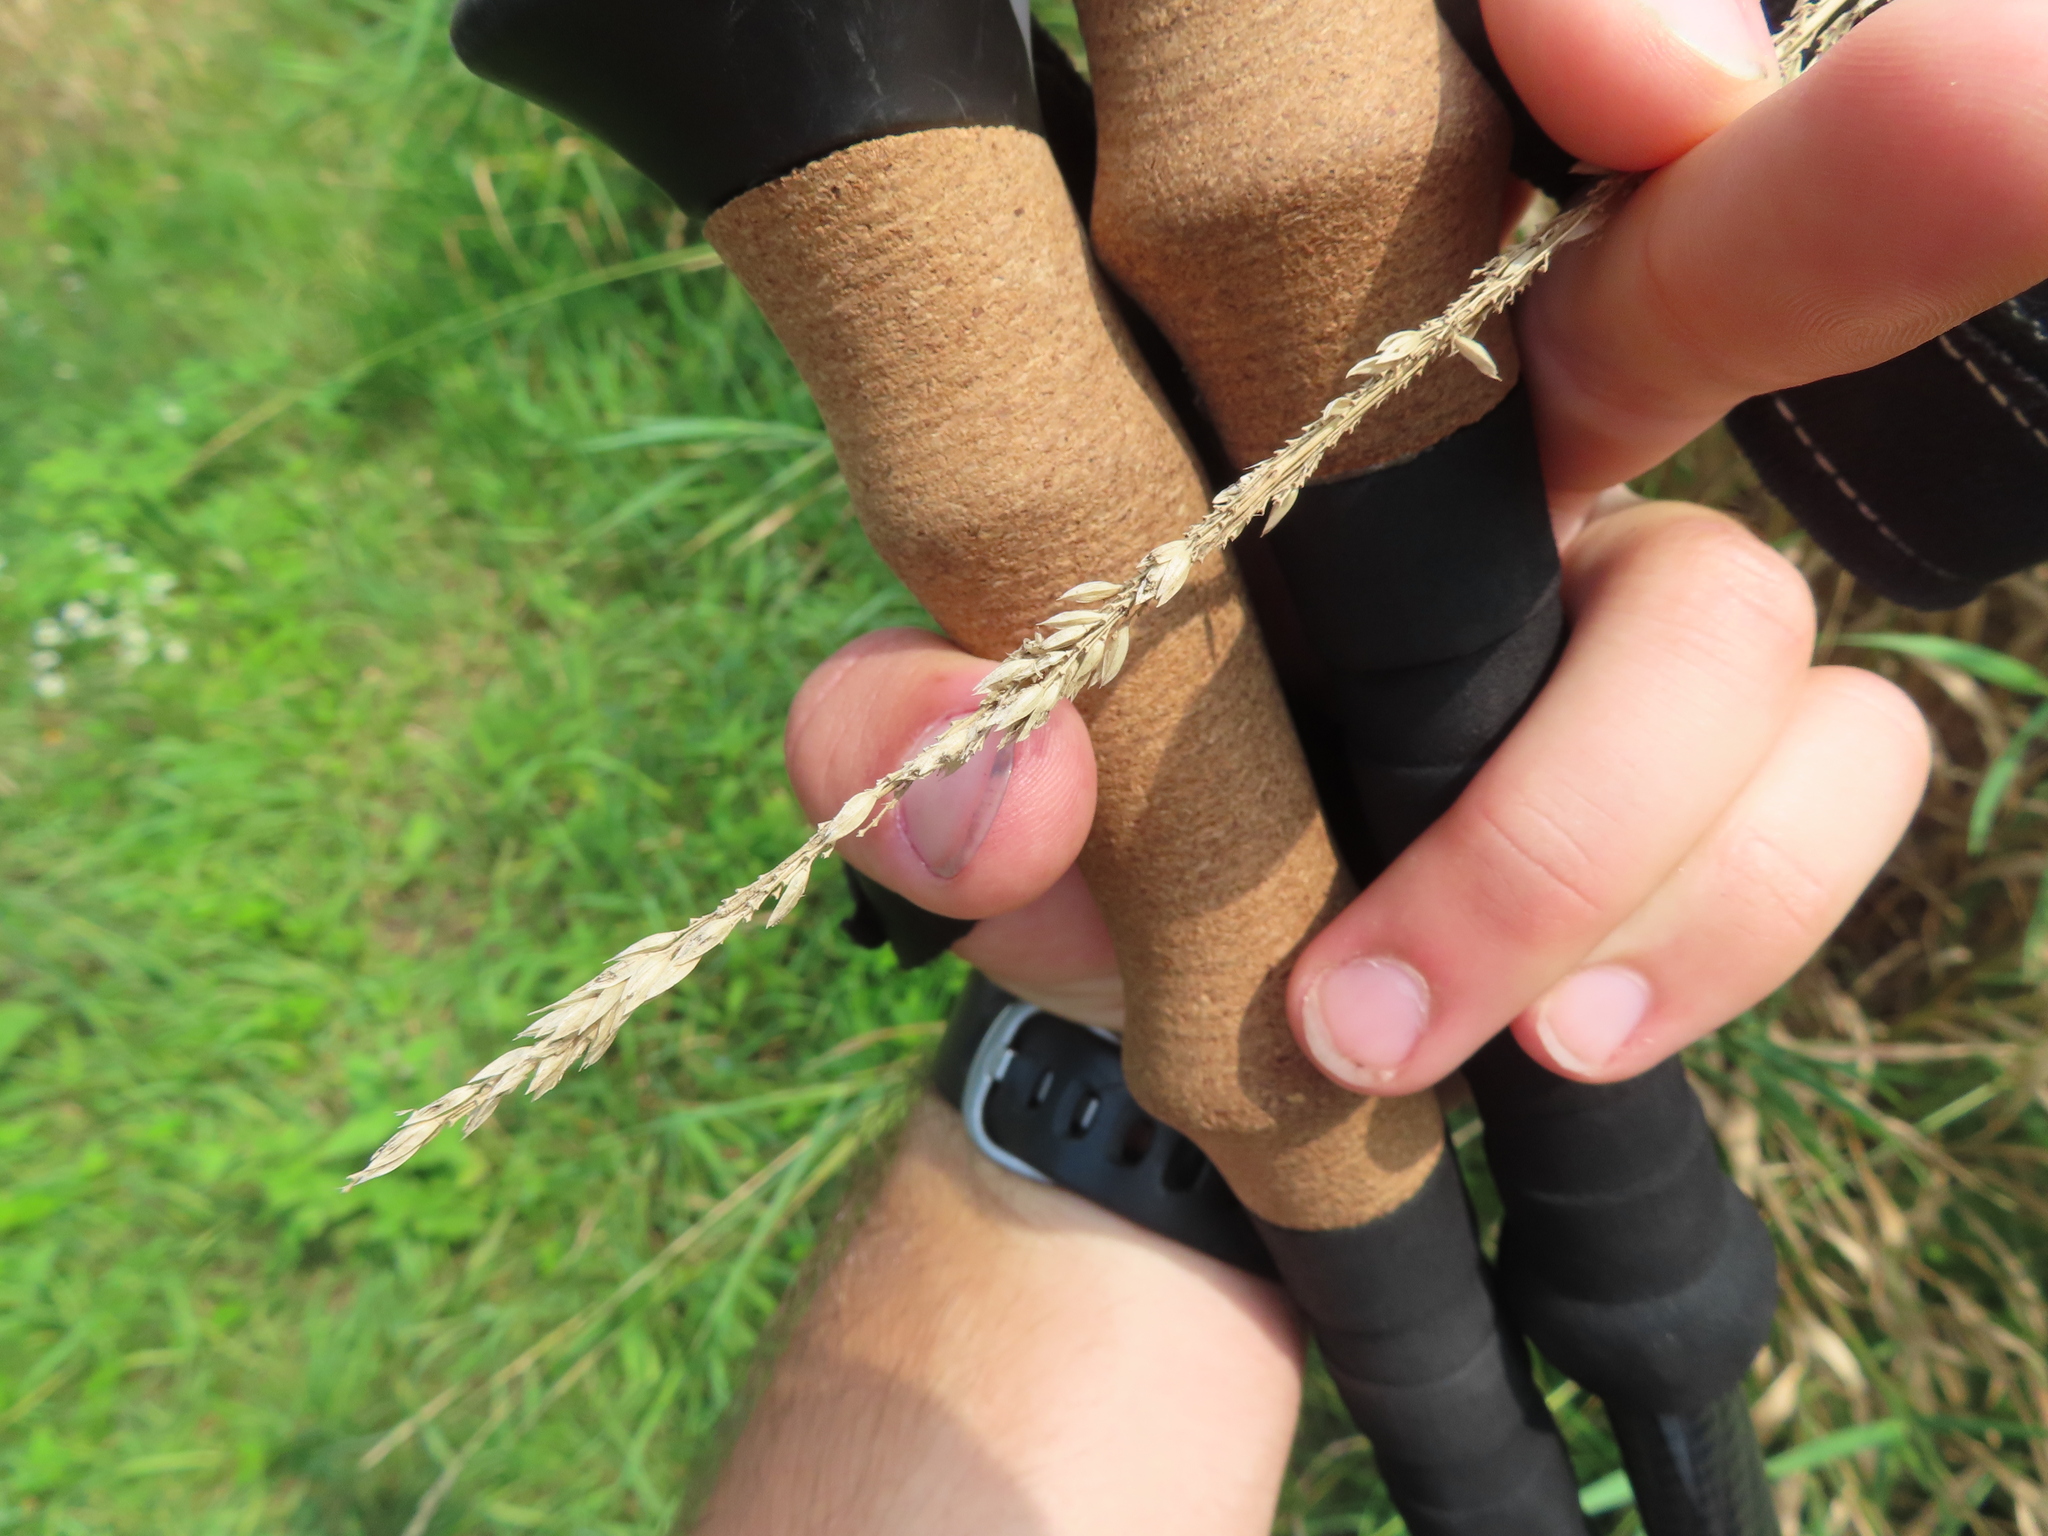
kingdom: Plantae
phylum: Tracheophyta
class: Liliopsida
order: Poales
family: Poaceae
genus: Phalaris
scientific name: Phalaris arundinacea
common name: Reed canary-grass
